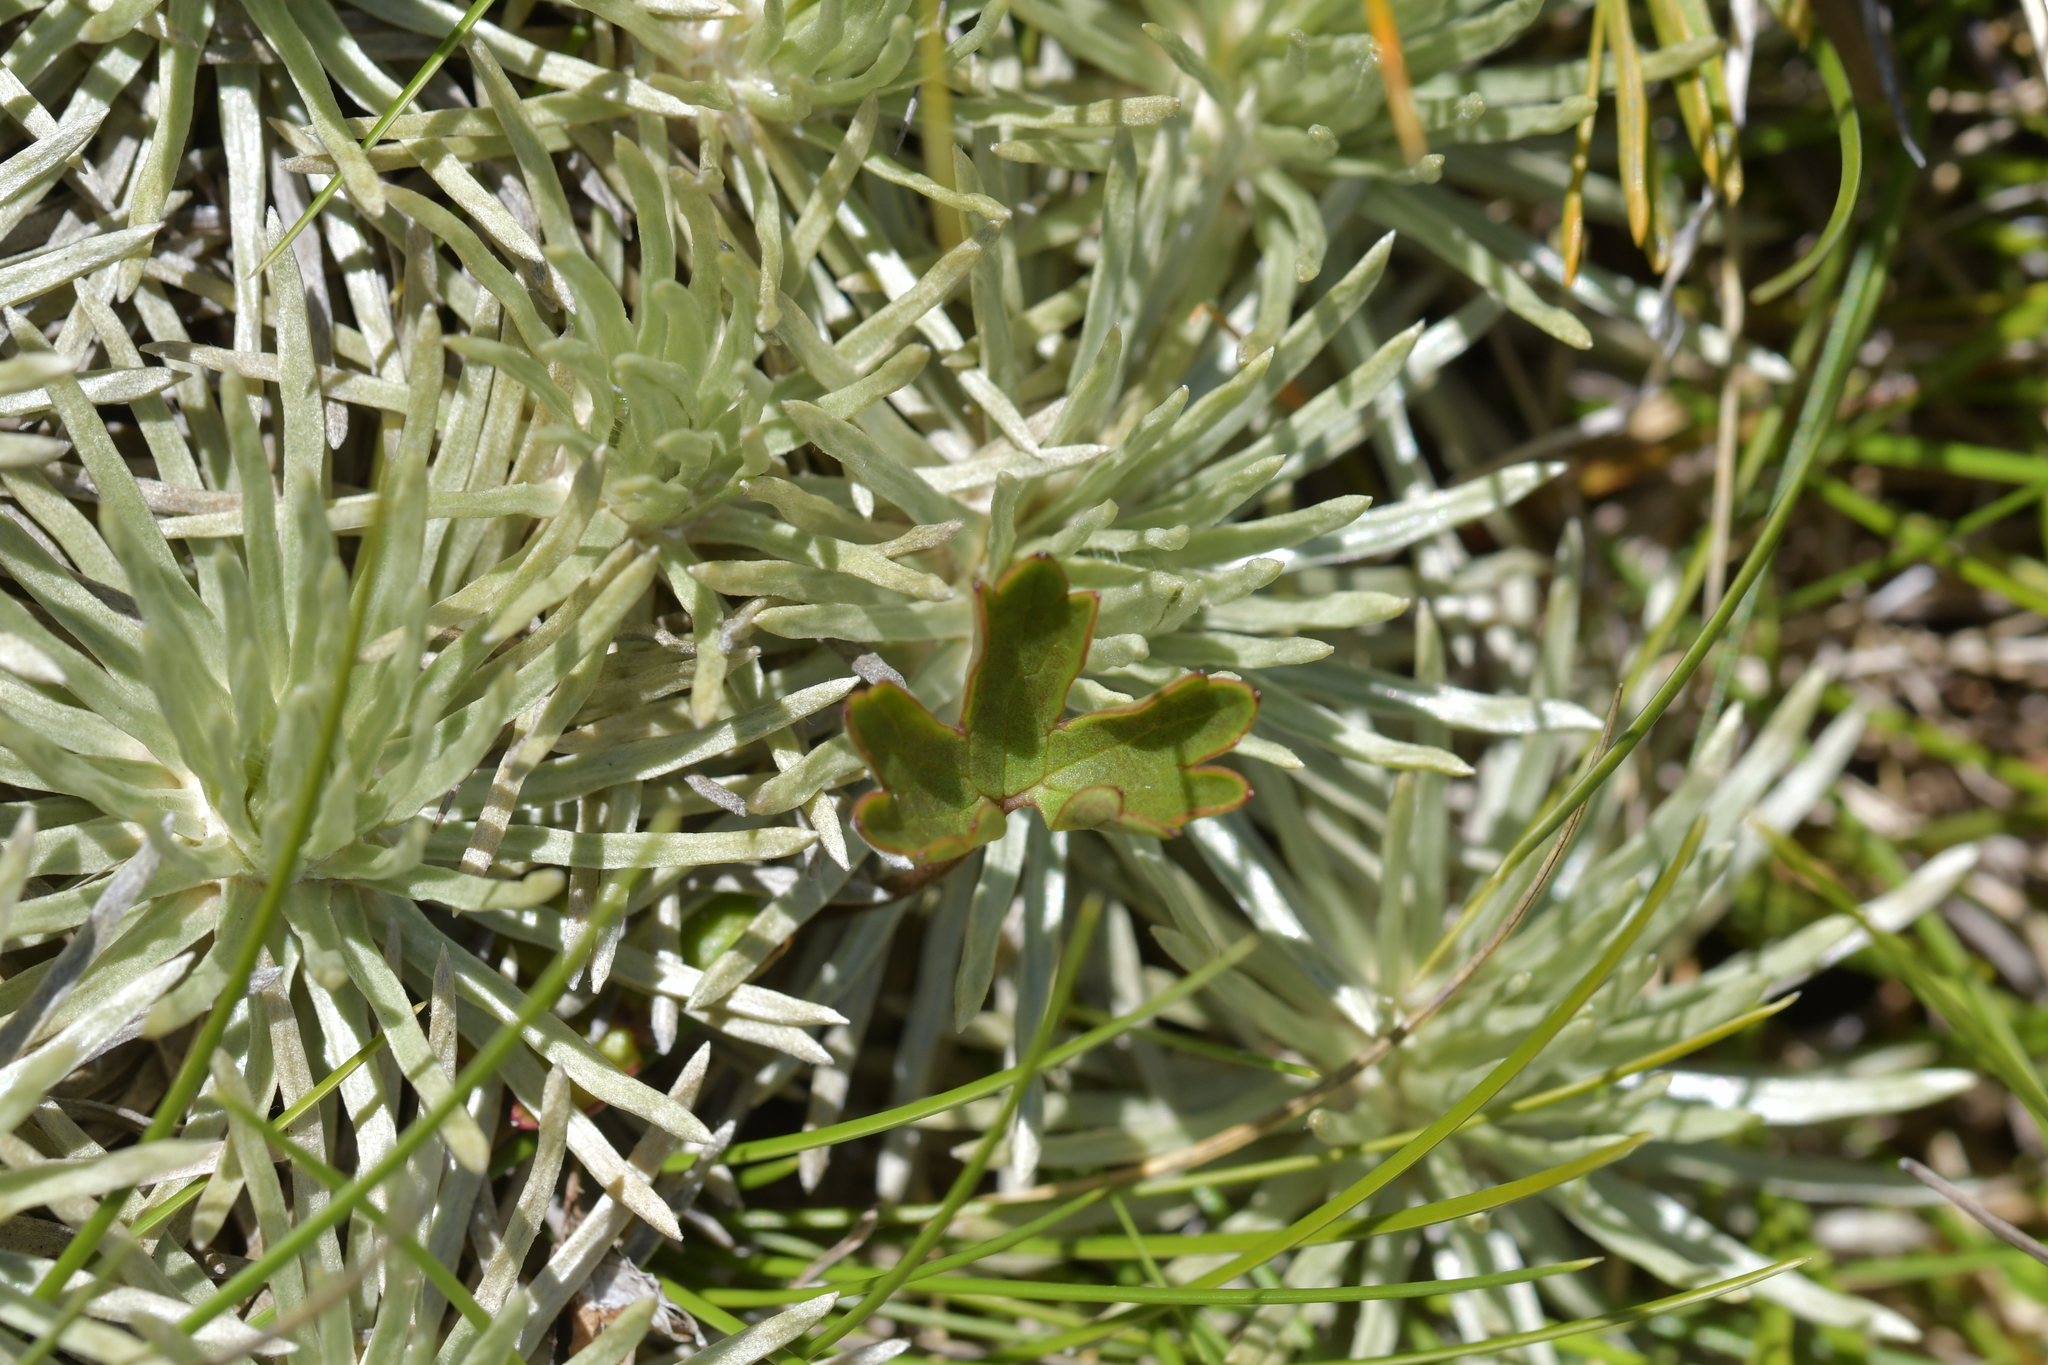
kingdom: Plantae
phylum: Tracheophyta
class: Magnoliopsida
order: Asterales
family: Asteraceae
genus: Celmisia
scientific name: Celmisia sessiliflora
